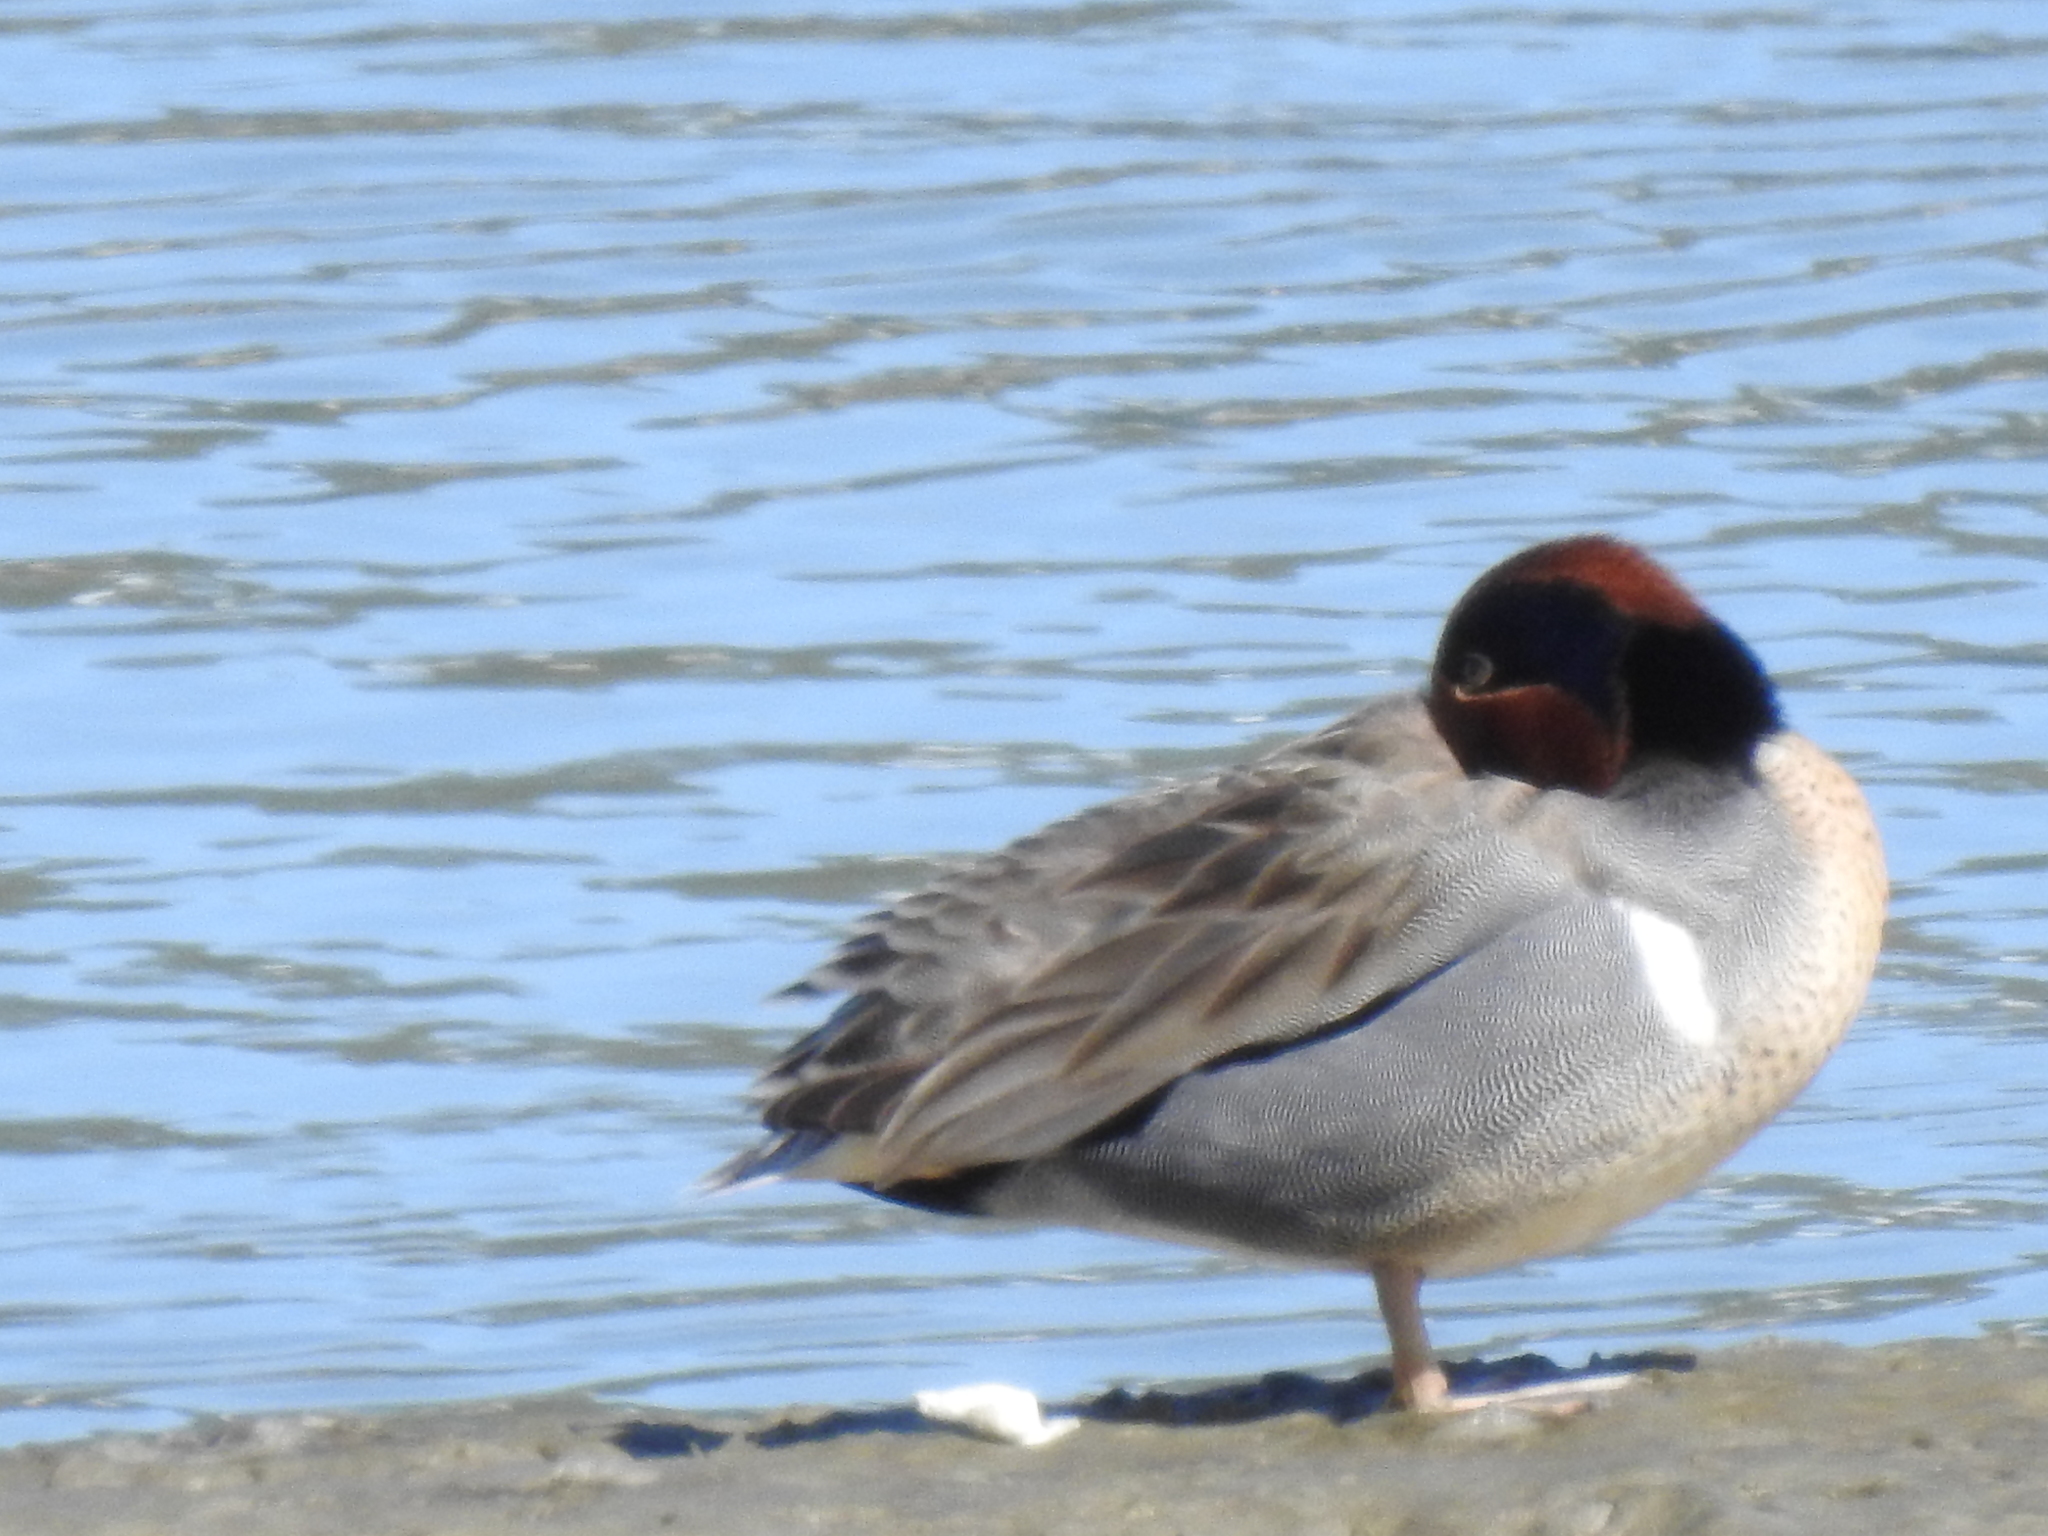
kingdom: Animalia
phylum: Chordata
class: Aves
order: Anseriformes
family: Anatidae
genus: Anas
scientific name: Anas crecca
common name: Eurasian teal
